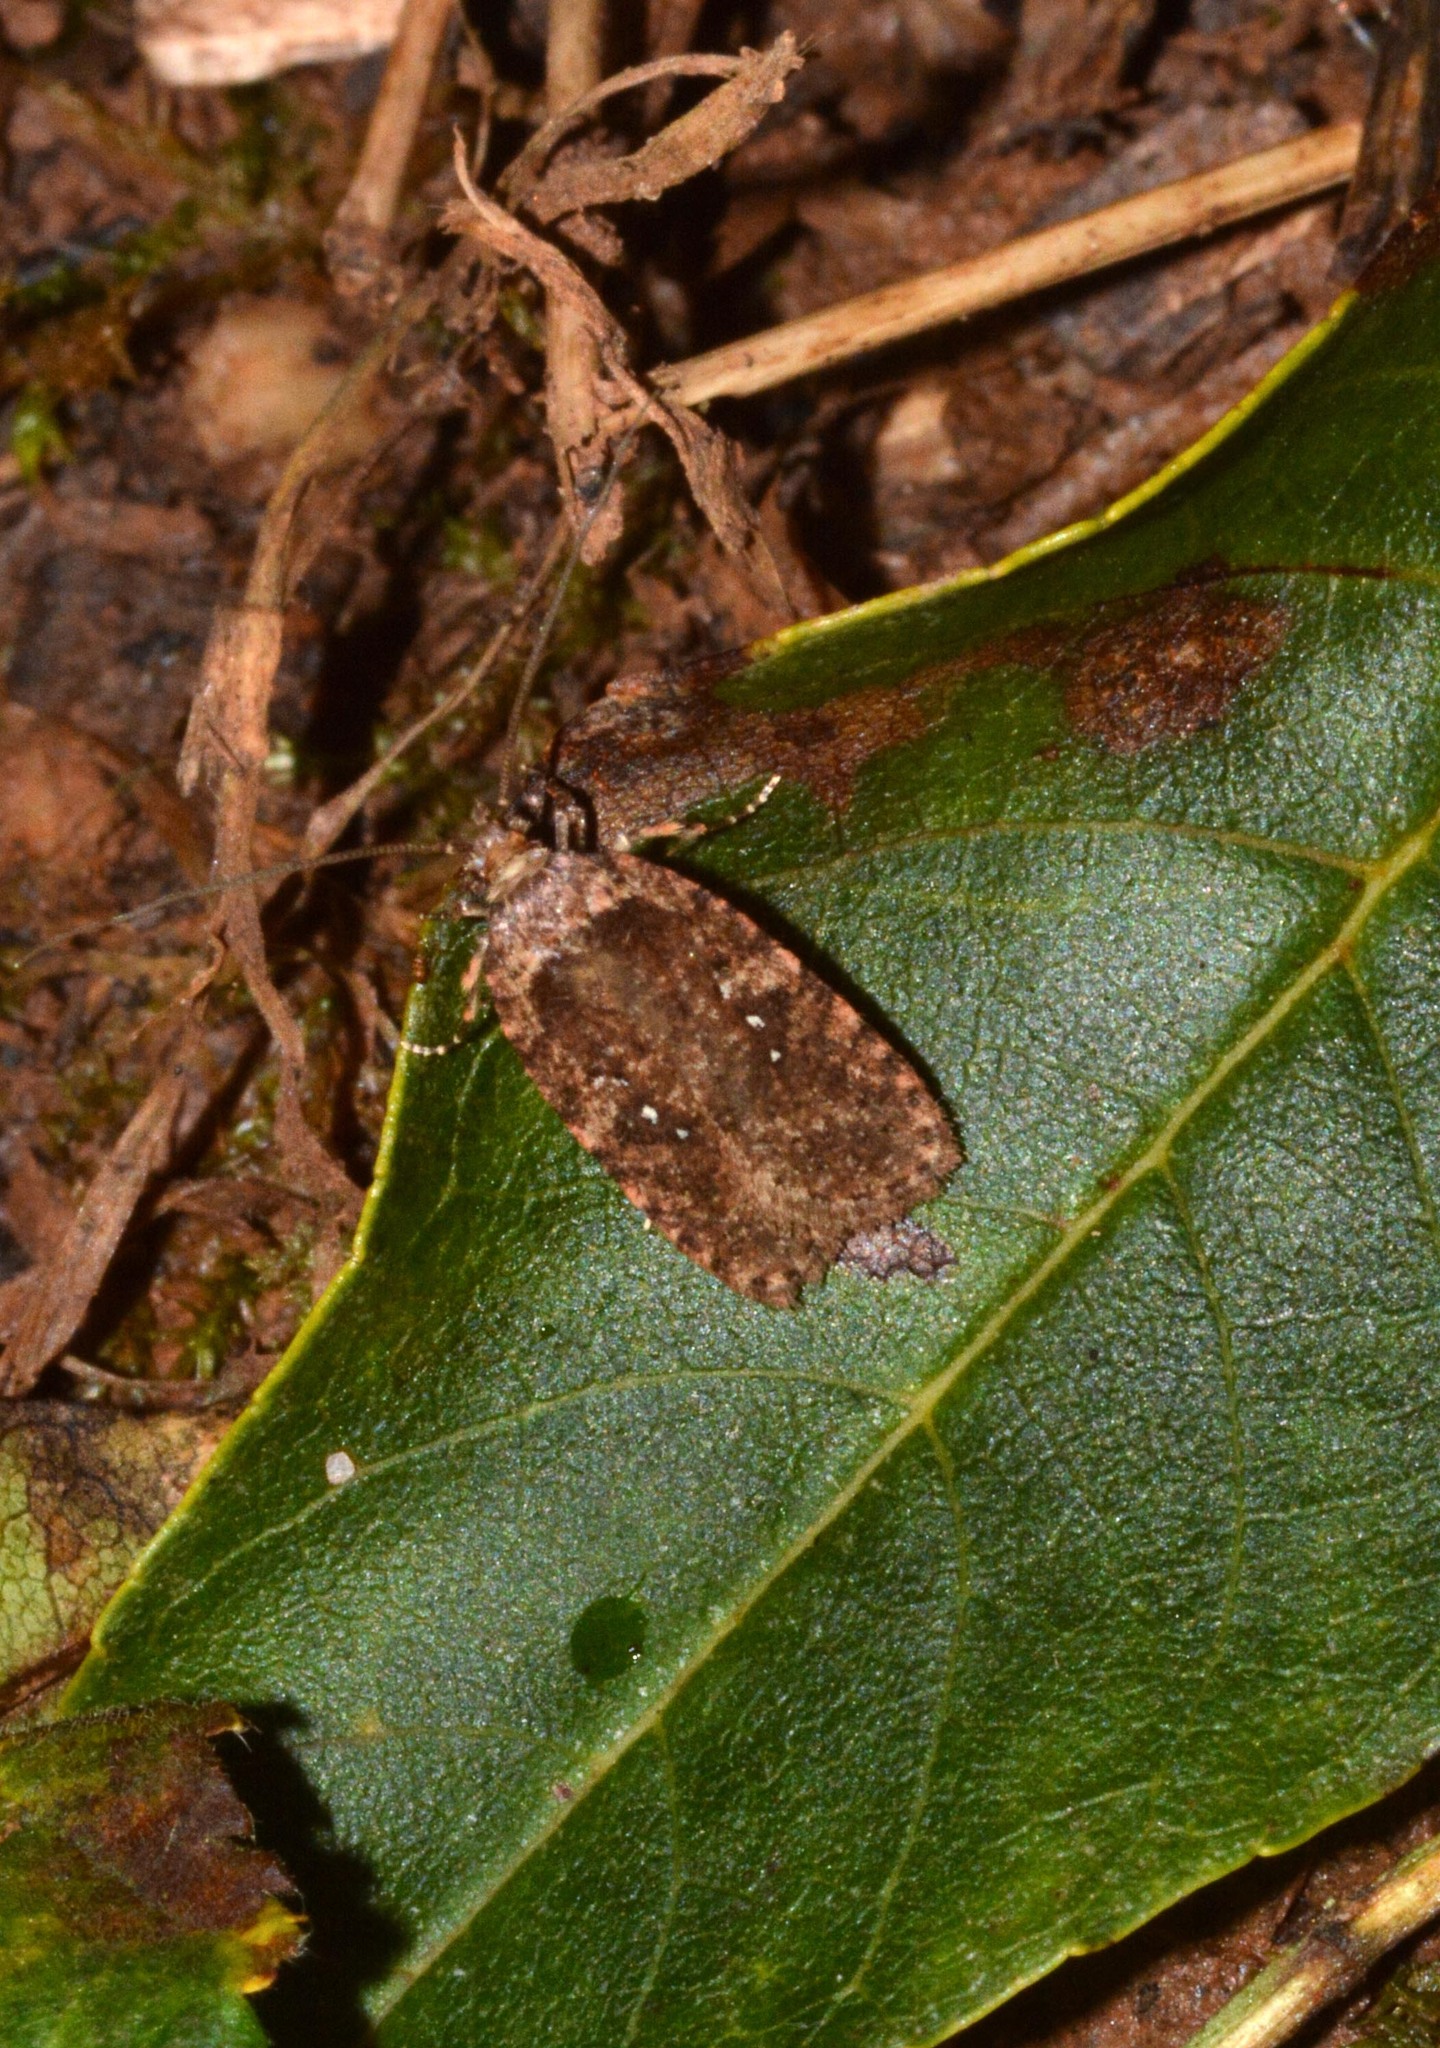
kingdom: Animalia
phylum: Arthropoda
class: Insecta
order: Lepidoptera
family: Depressariidae
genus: Agonopterix
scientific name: Agonopterix
